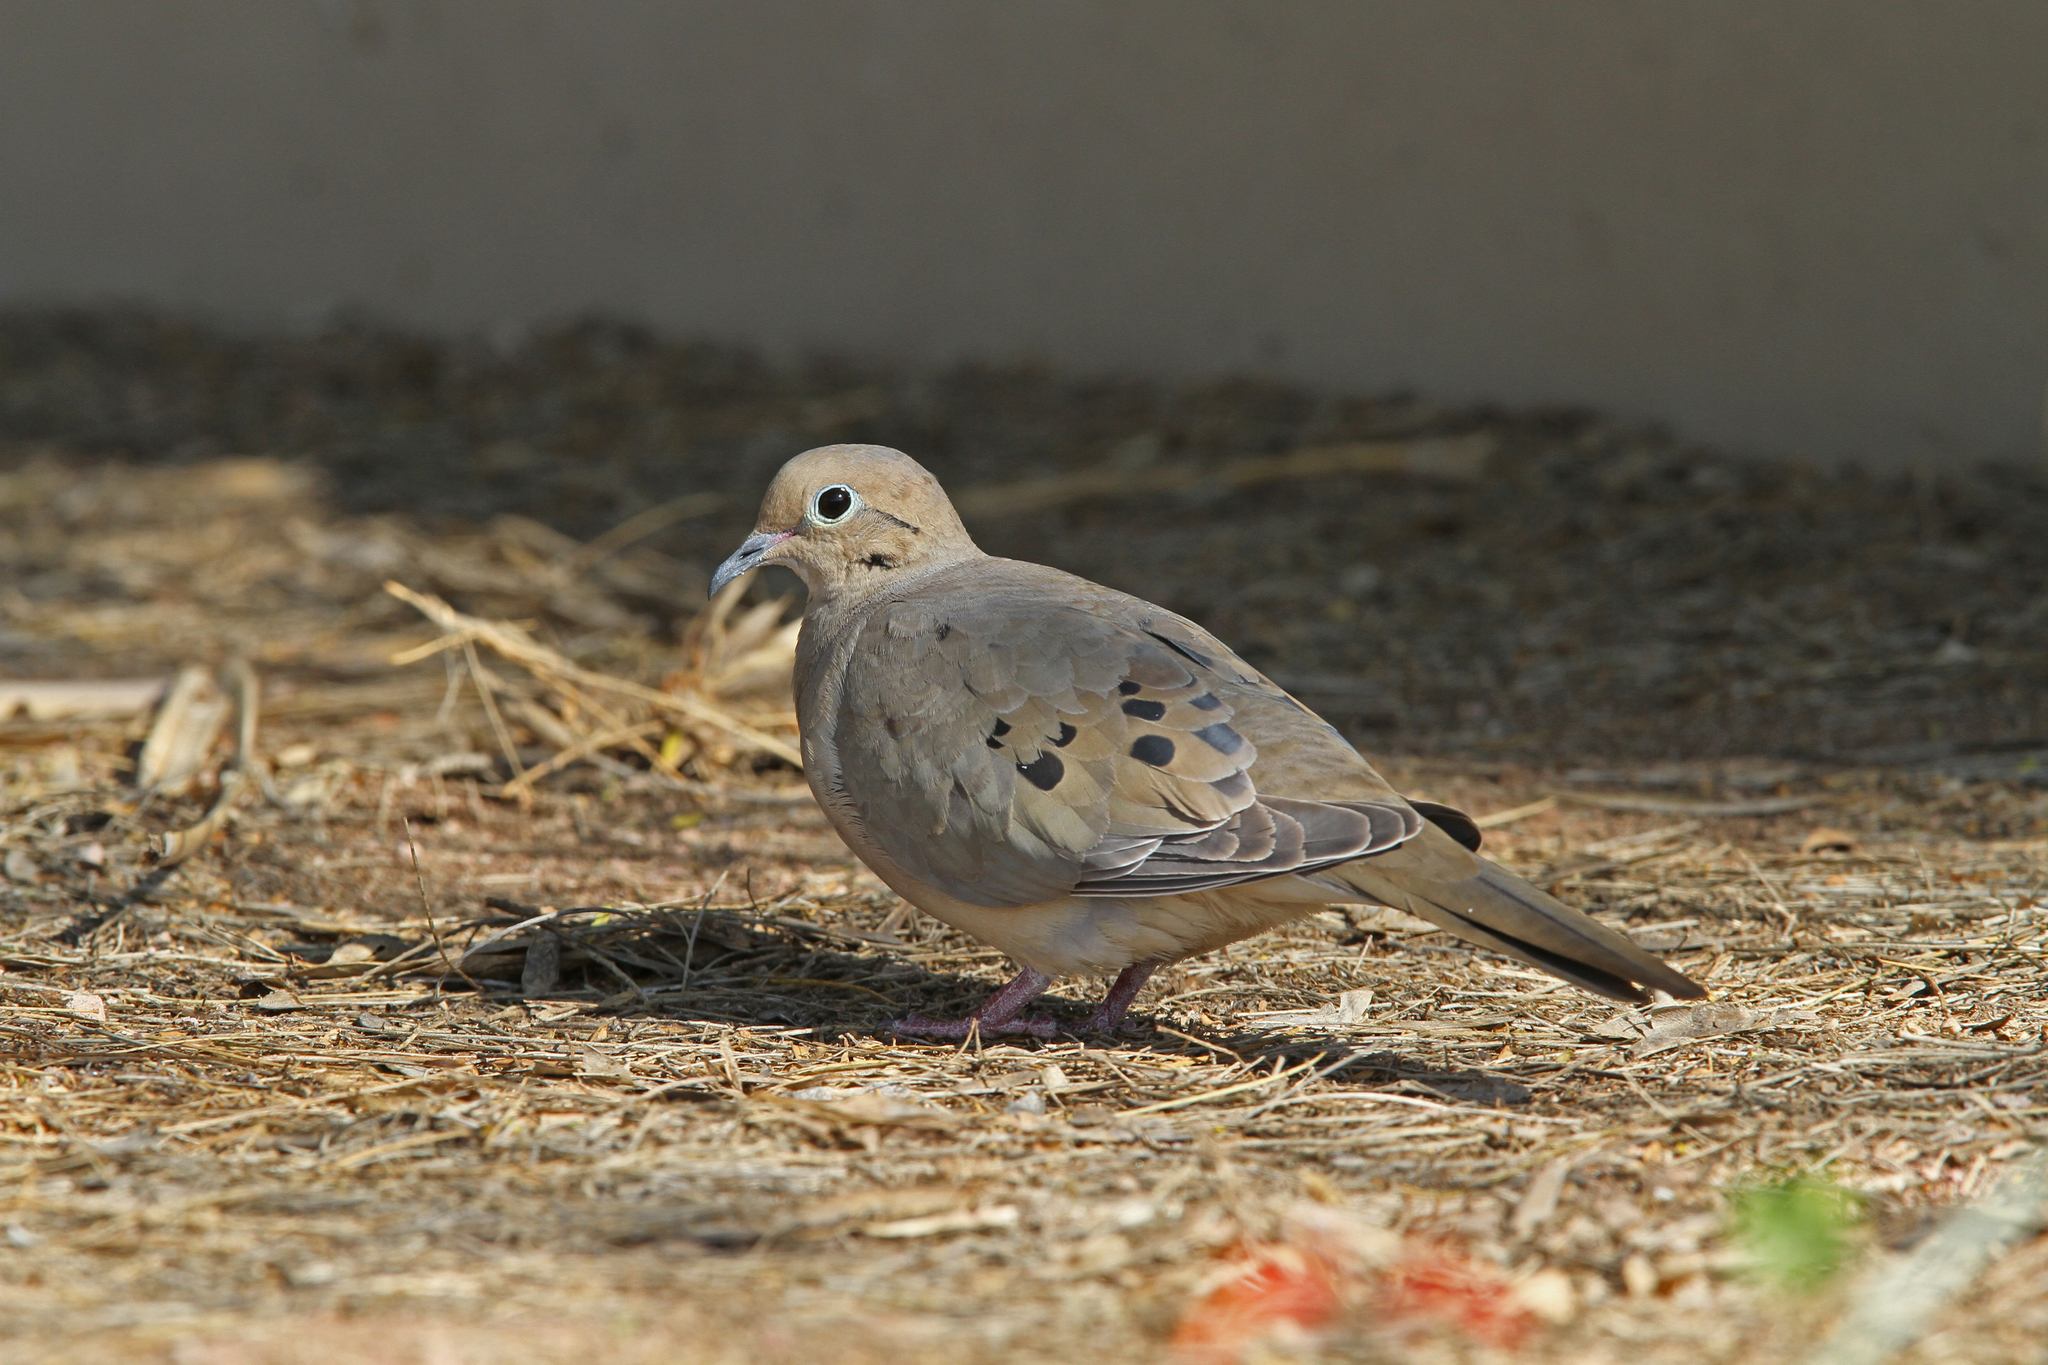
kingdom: Animalia
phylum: Chordata
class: Aves
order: Columbiformes
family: Columbidae
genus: Zenaida
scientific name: Zenaida macroura
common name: Mourning dove
